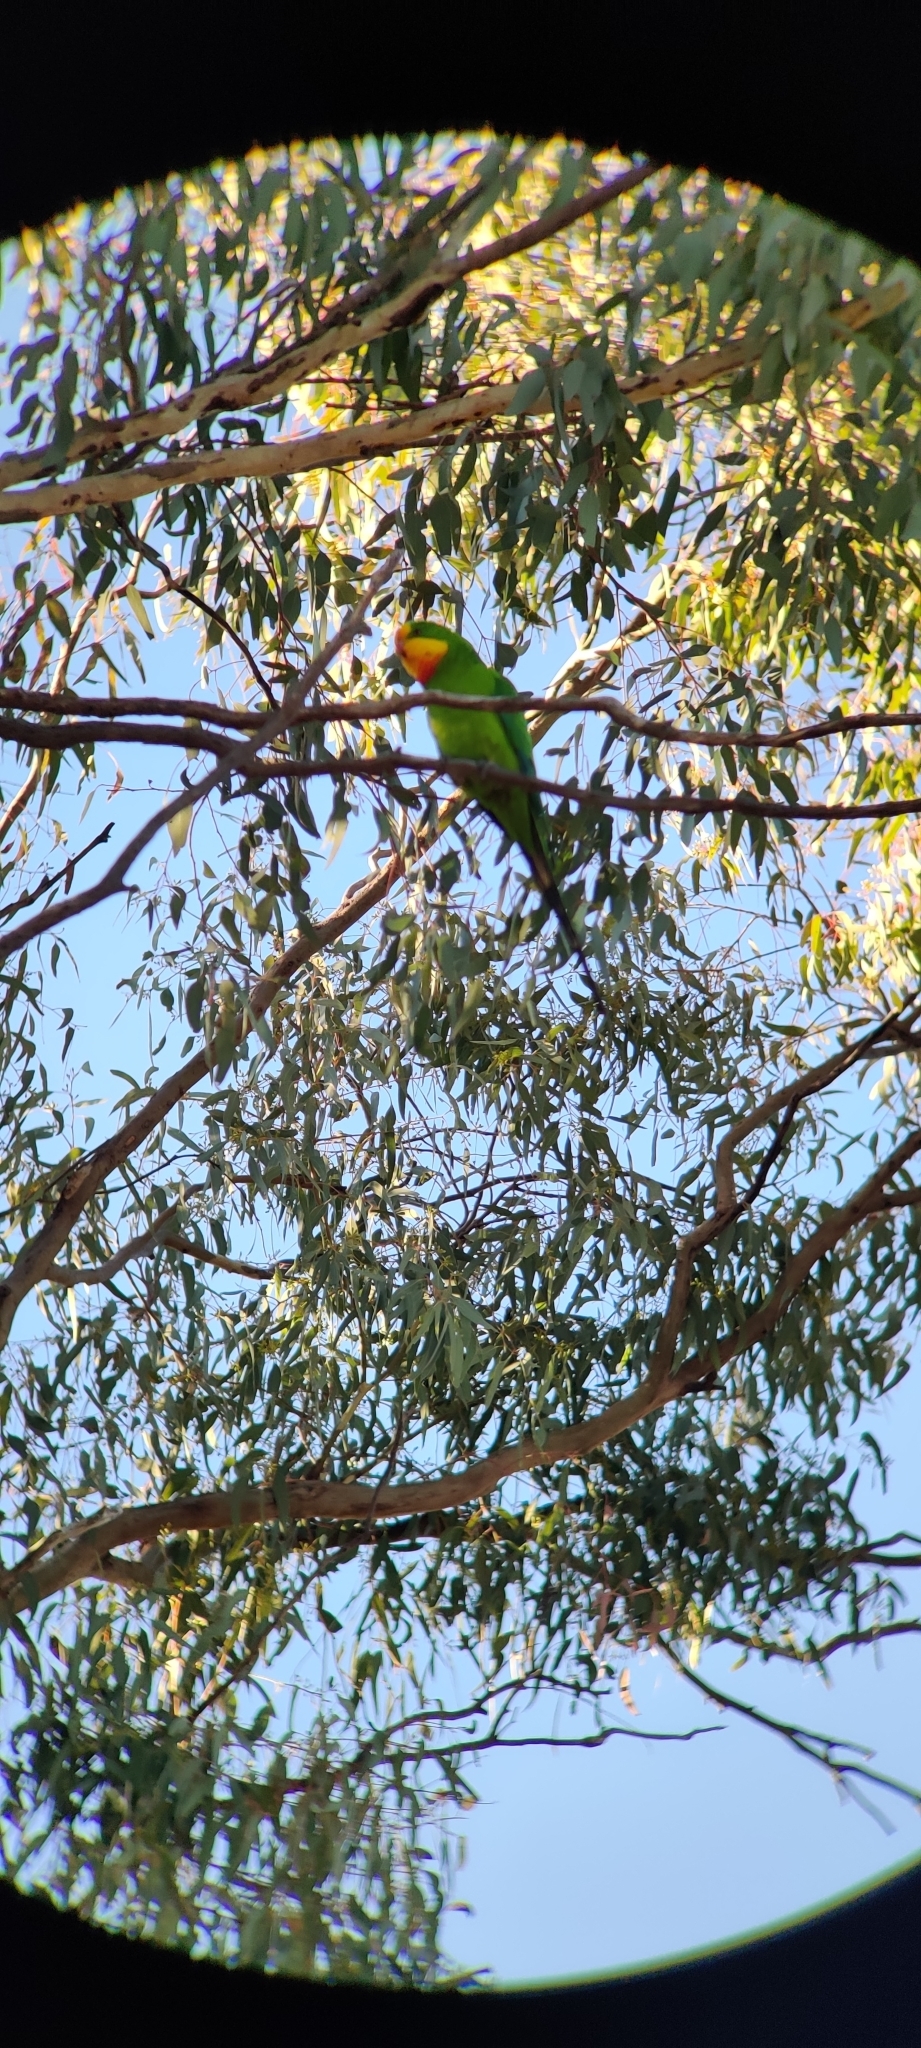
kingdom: Animalia
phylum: Chordata
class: Aves
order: Psittaciformes
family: Psittacidae
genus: Polytelis
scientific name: Polytelis swainsonii
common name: Superb parrot
